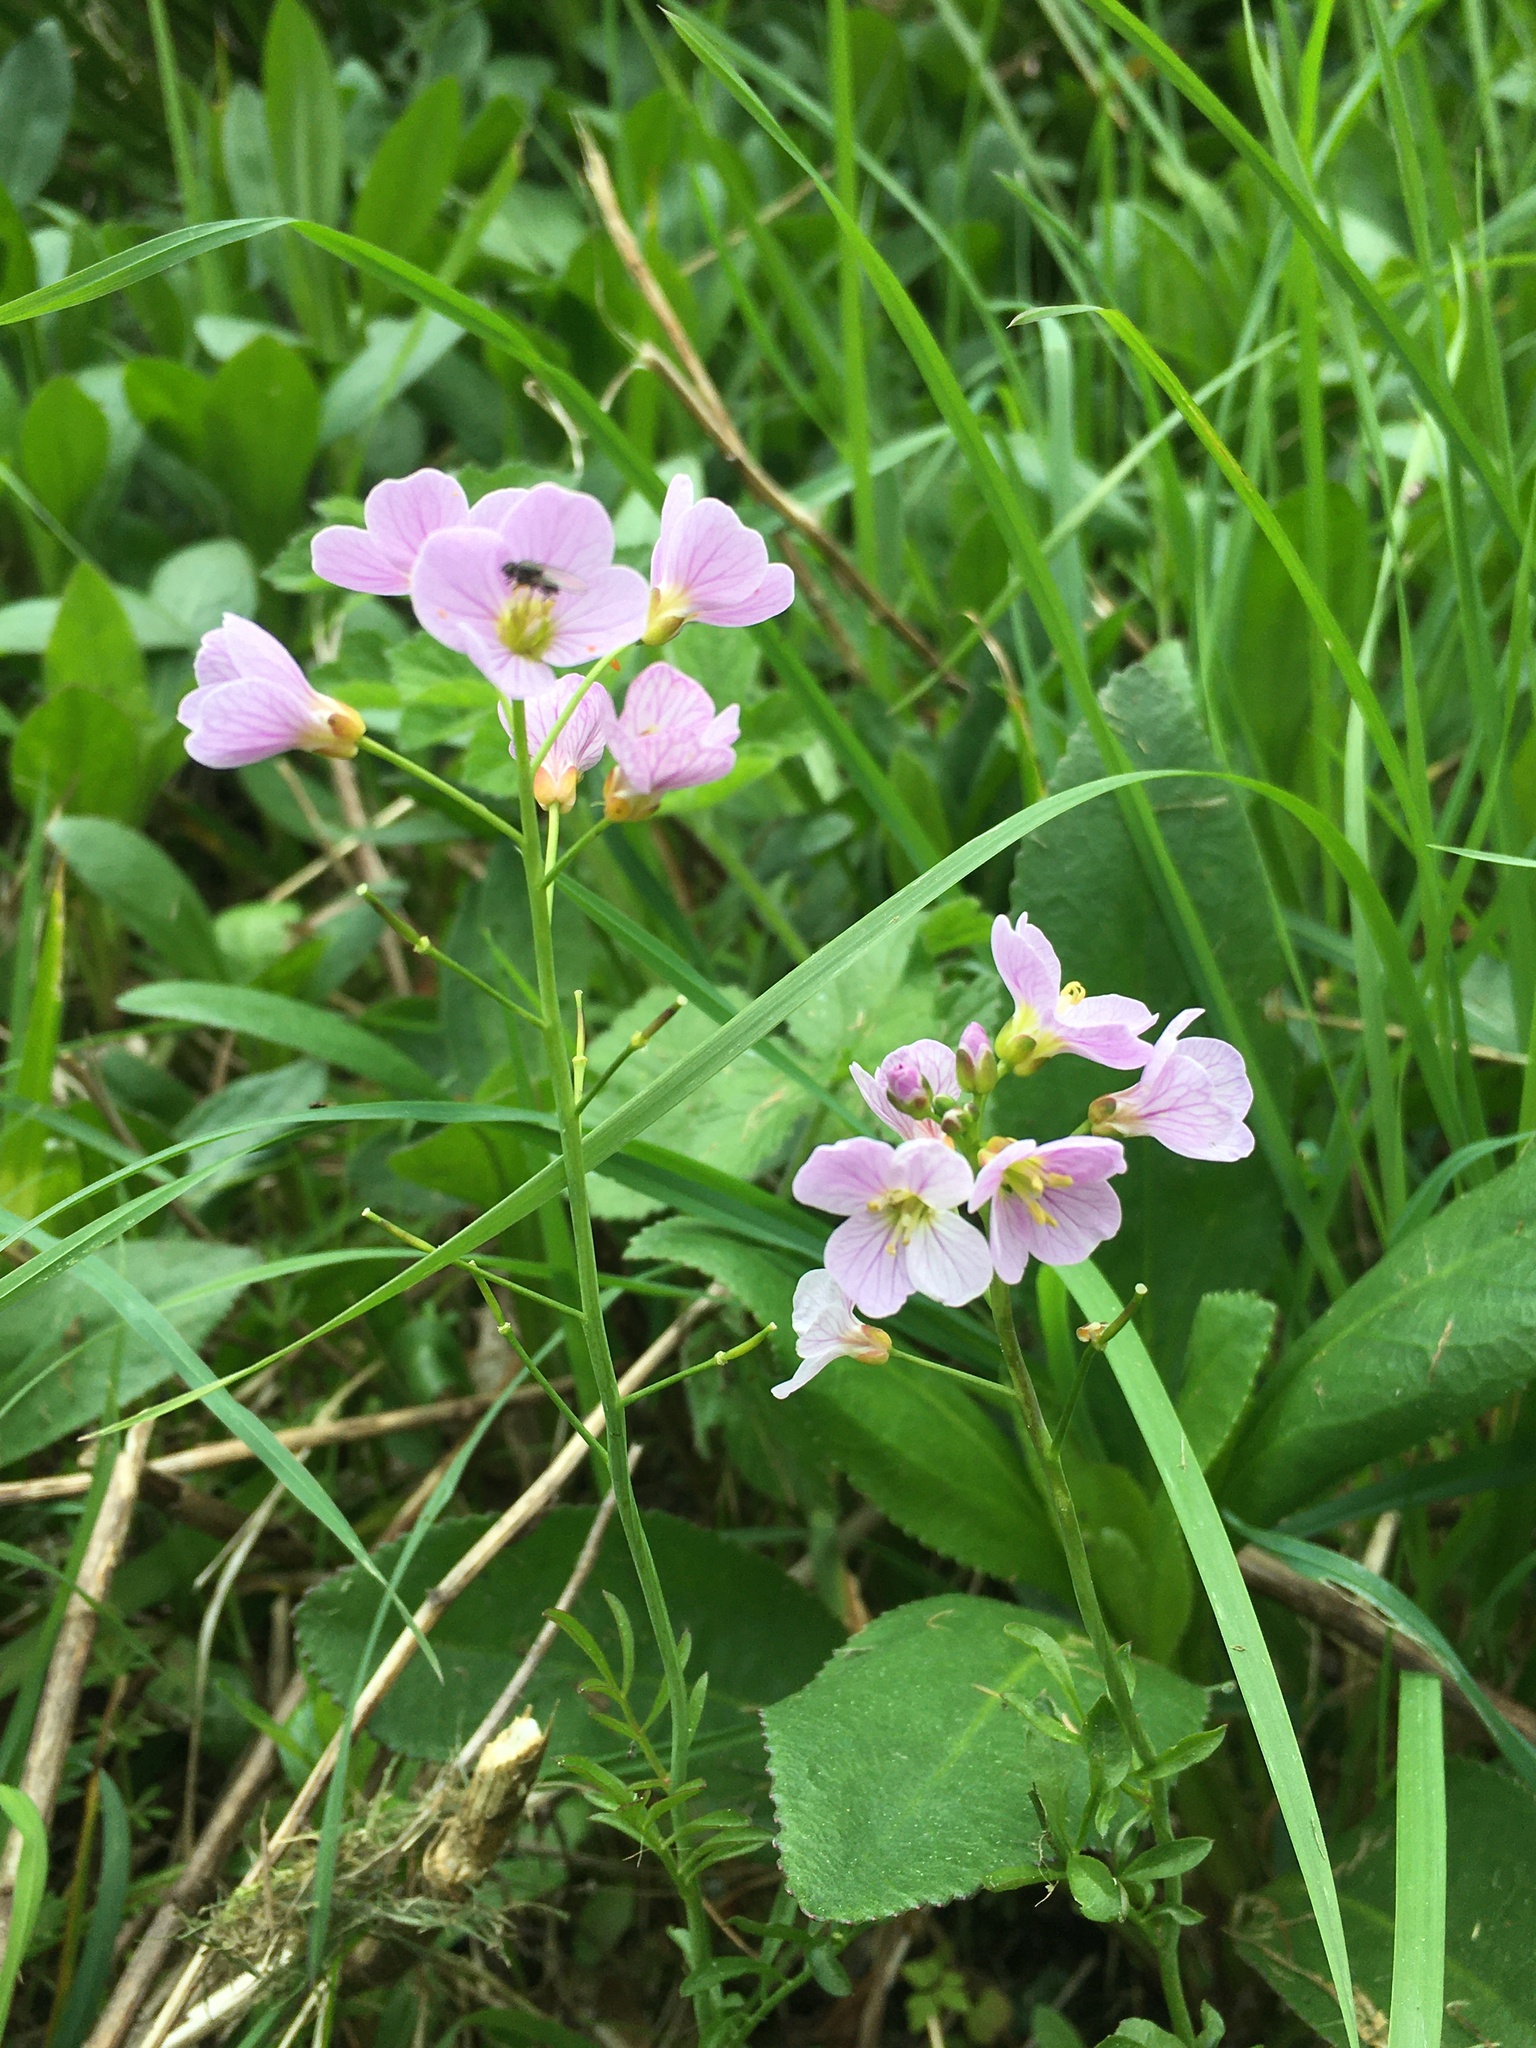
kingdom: Plantae
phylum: Tracheophyta
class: Magnoliopsida
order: Brassicales
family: Brassicaceae
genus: Cardamine
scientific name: Cardamine pratensis
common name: Cuckoo flower
